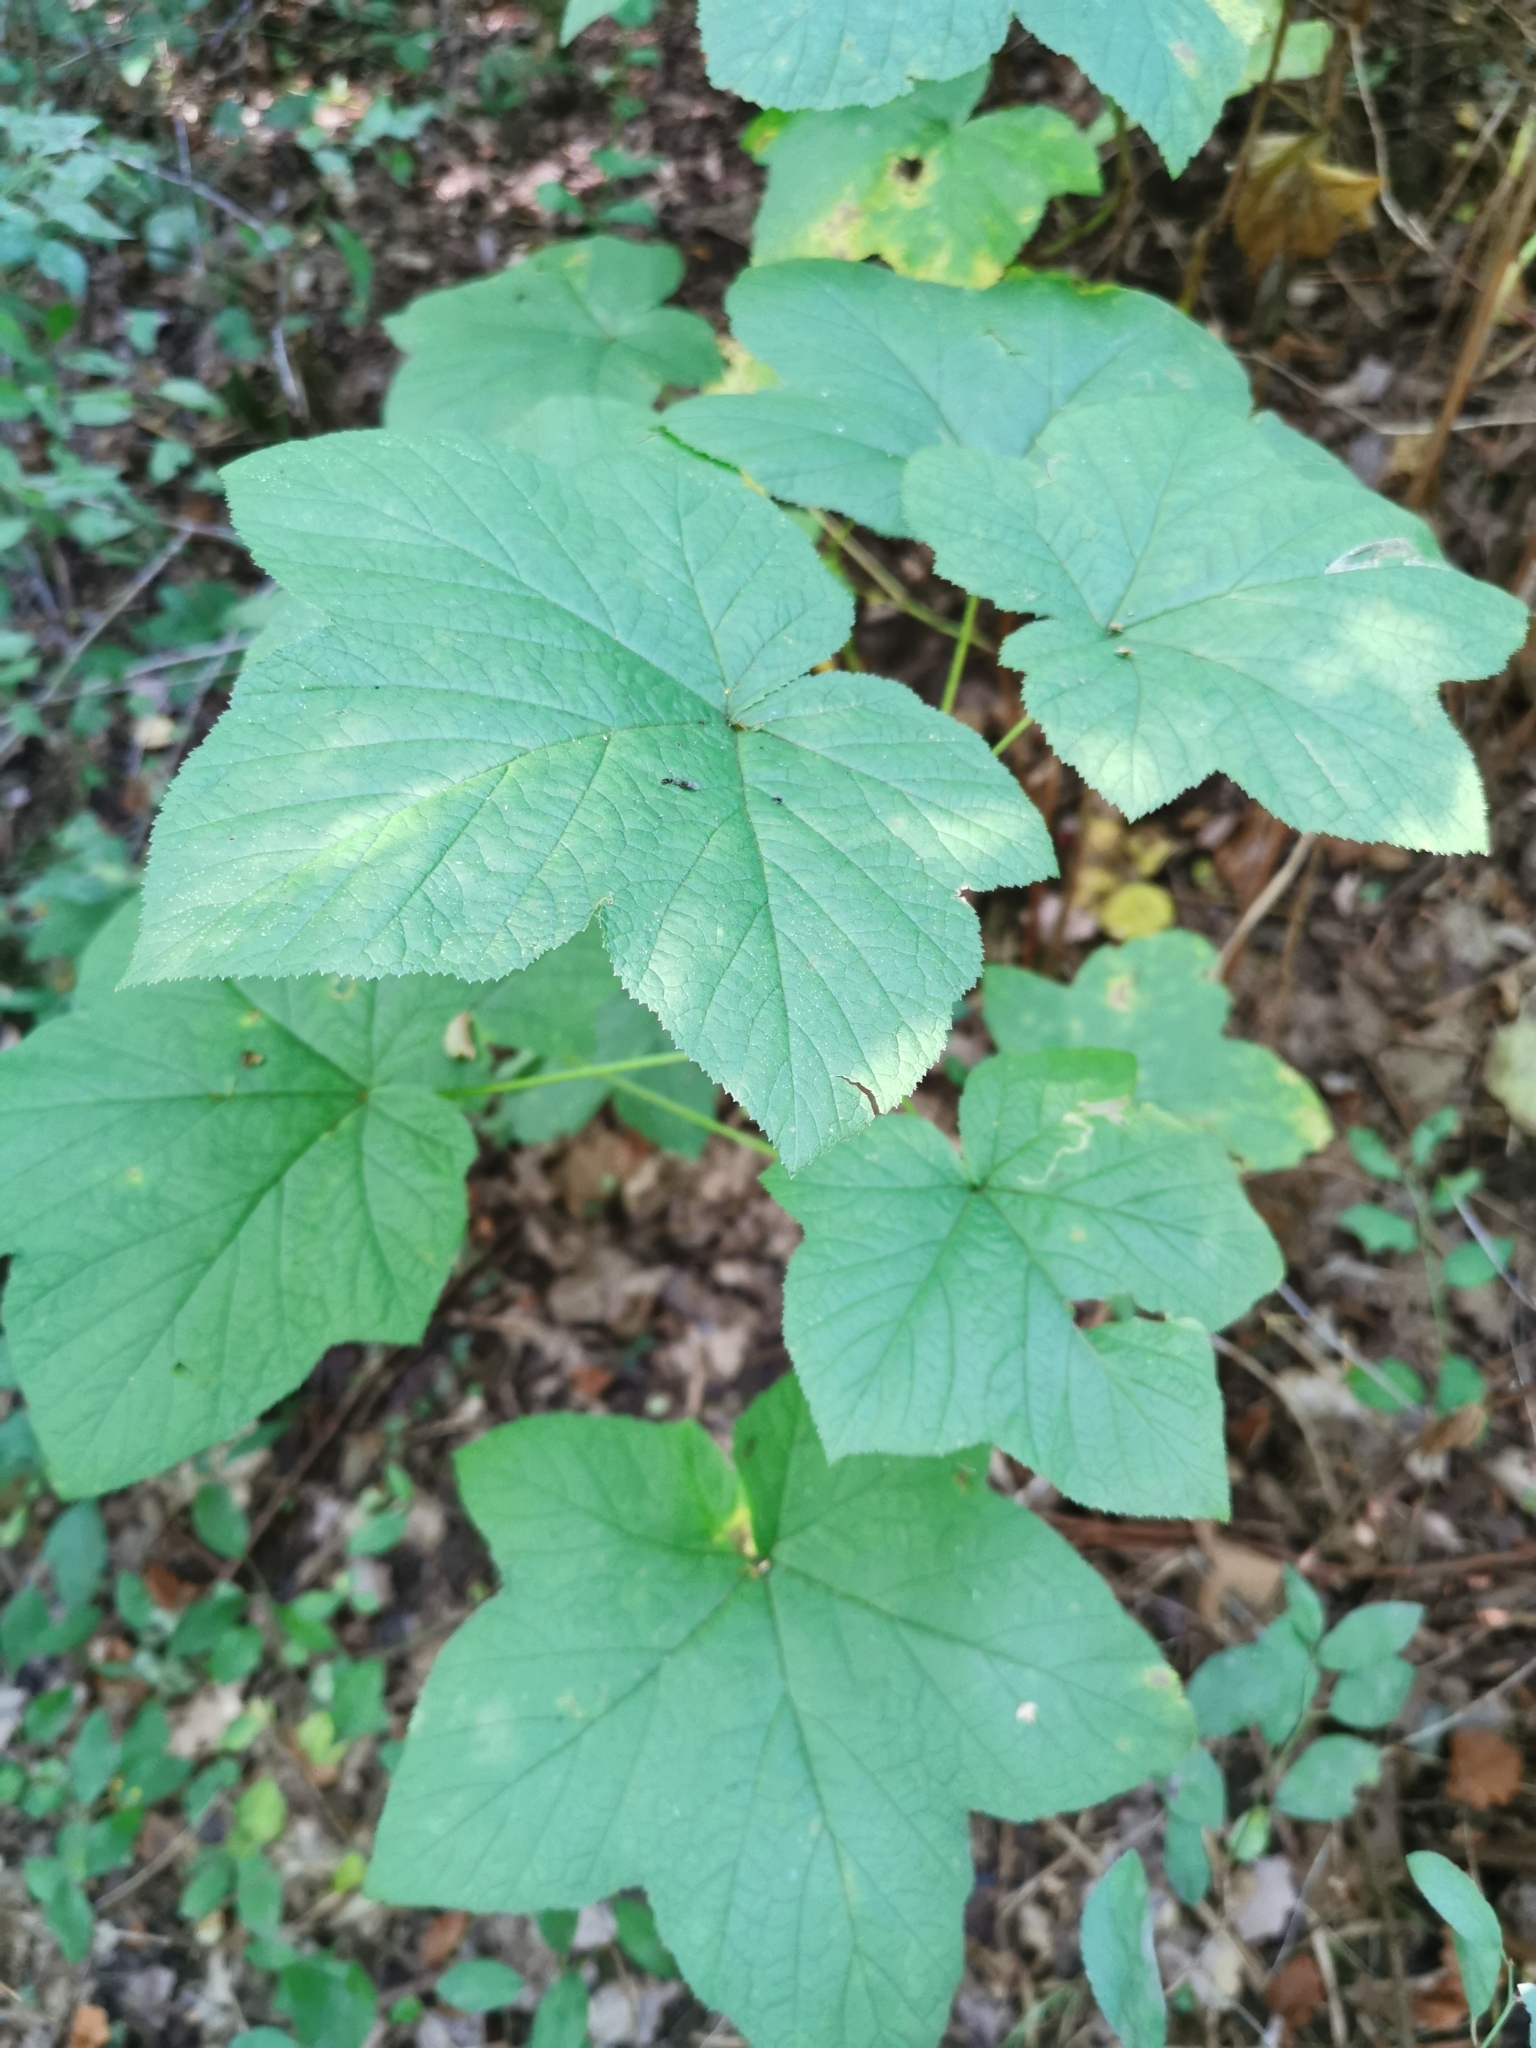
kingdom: Plantae
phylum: Tracheophyta
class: Magnoliopsida
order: Rosales
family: Rosaceae
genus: Rubus
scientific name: Rubus odoratus
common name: Purple-flowered raspberry
